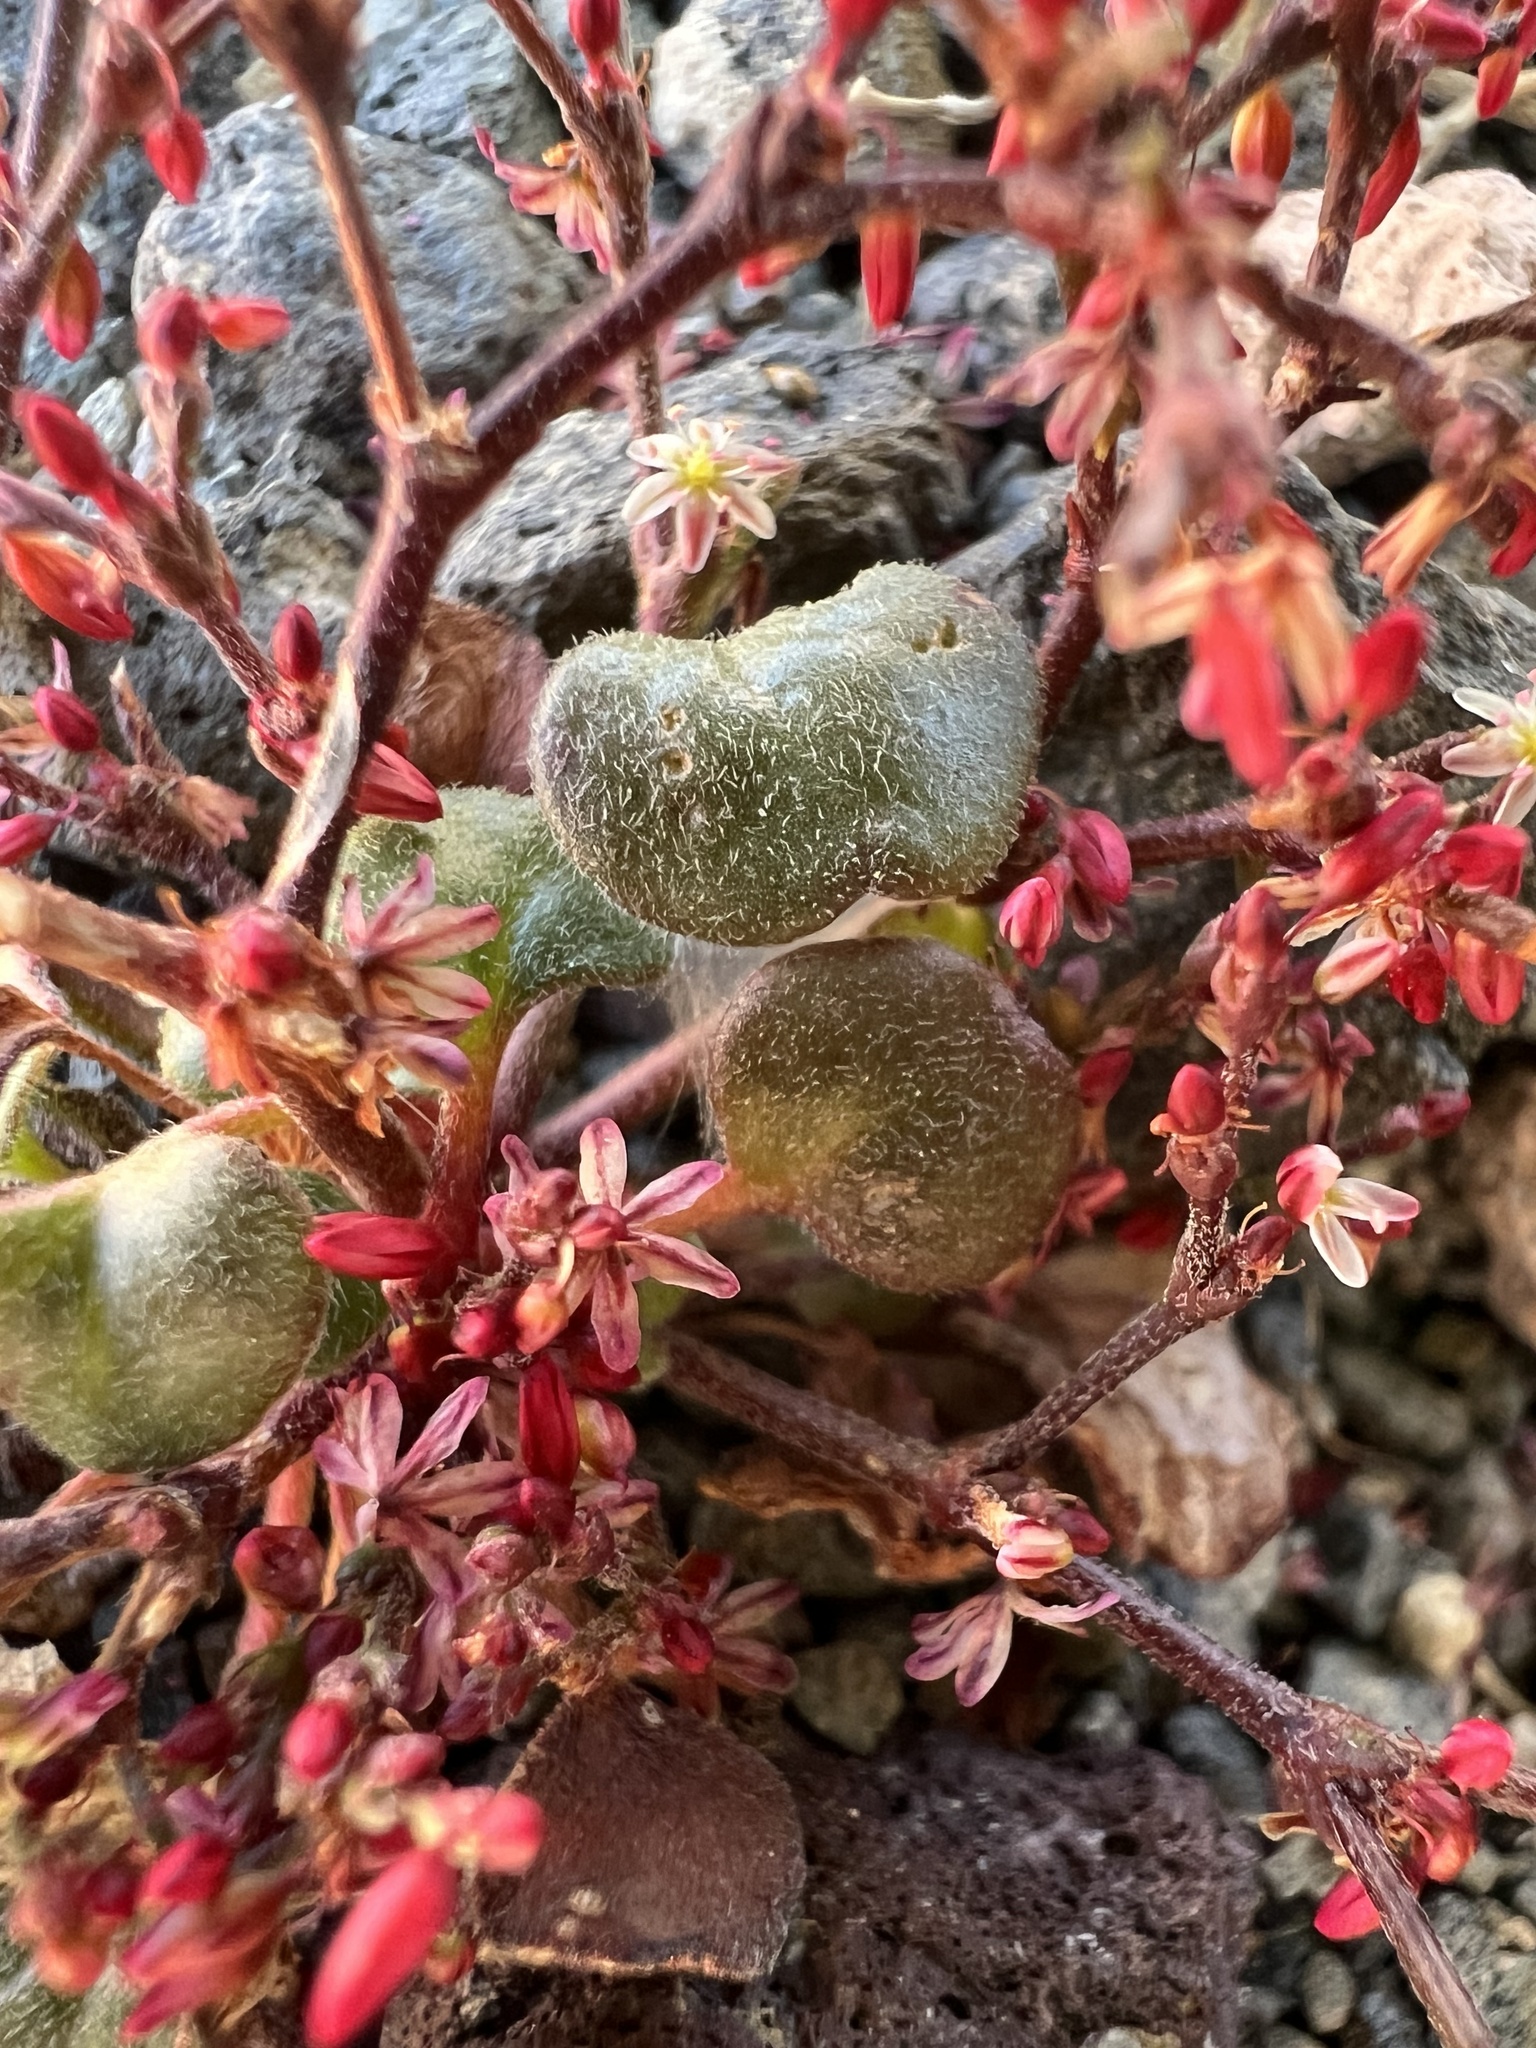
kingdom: Plantae
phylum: Tracheophyta
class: Magnoliopsida
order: Caryophyllales
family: Polygonaceae
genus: Johanneshowellia
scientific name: Johanneshowellia crateriorum
